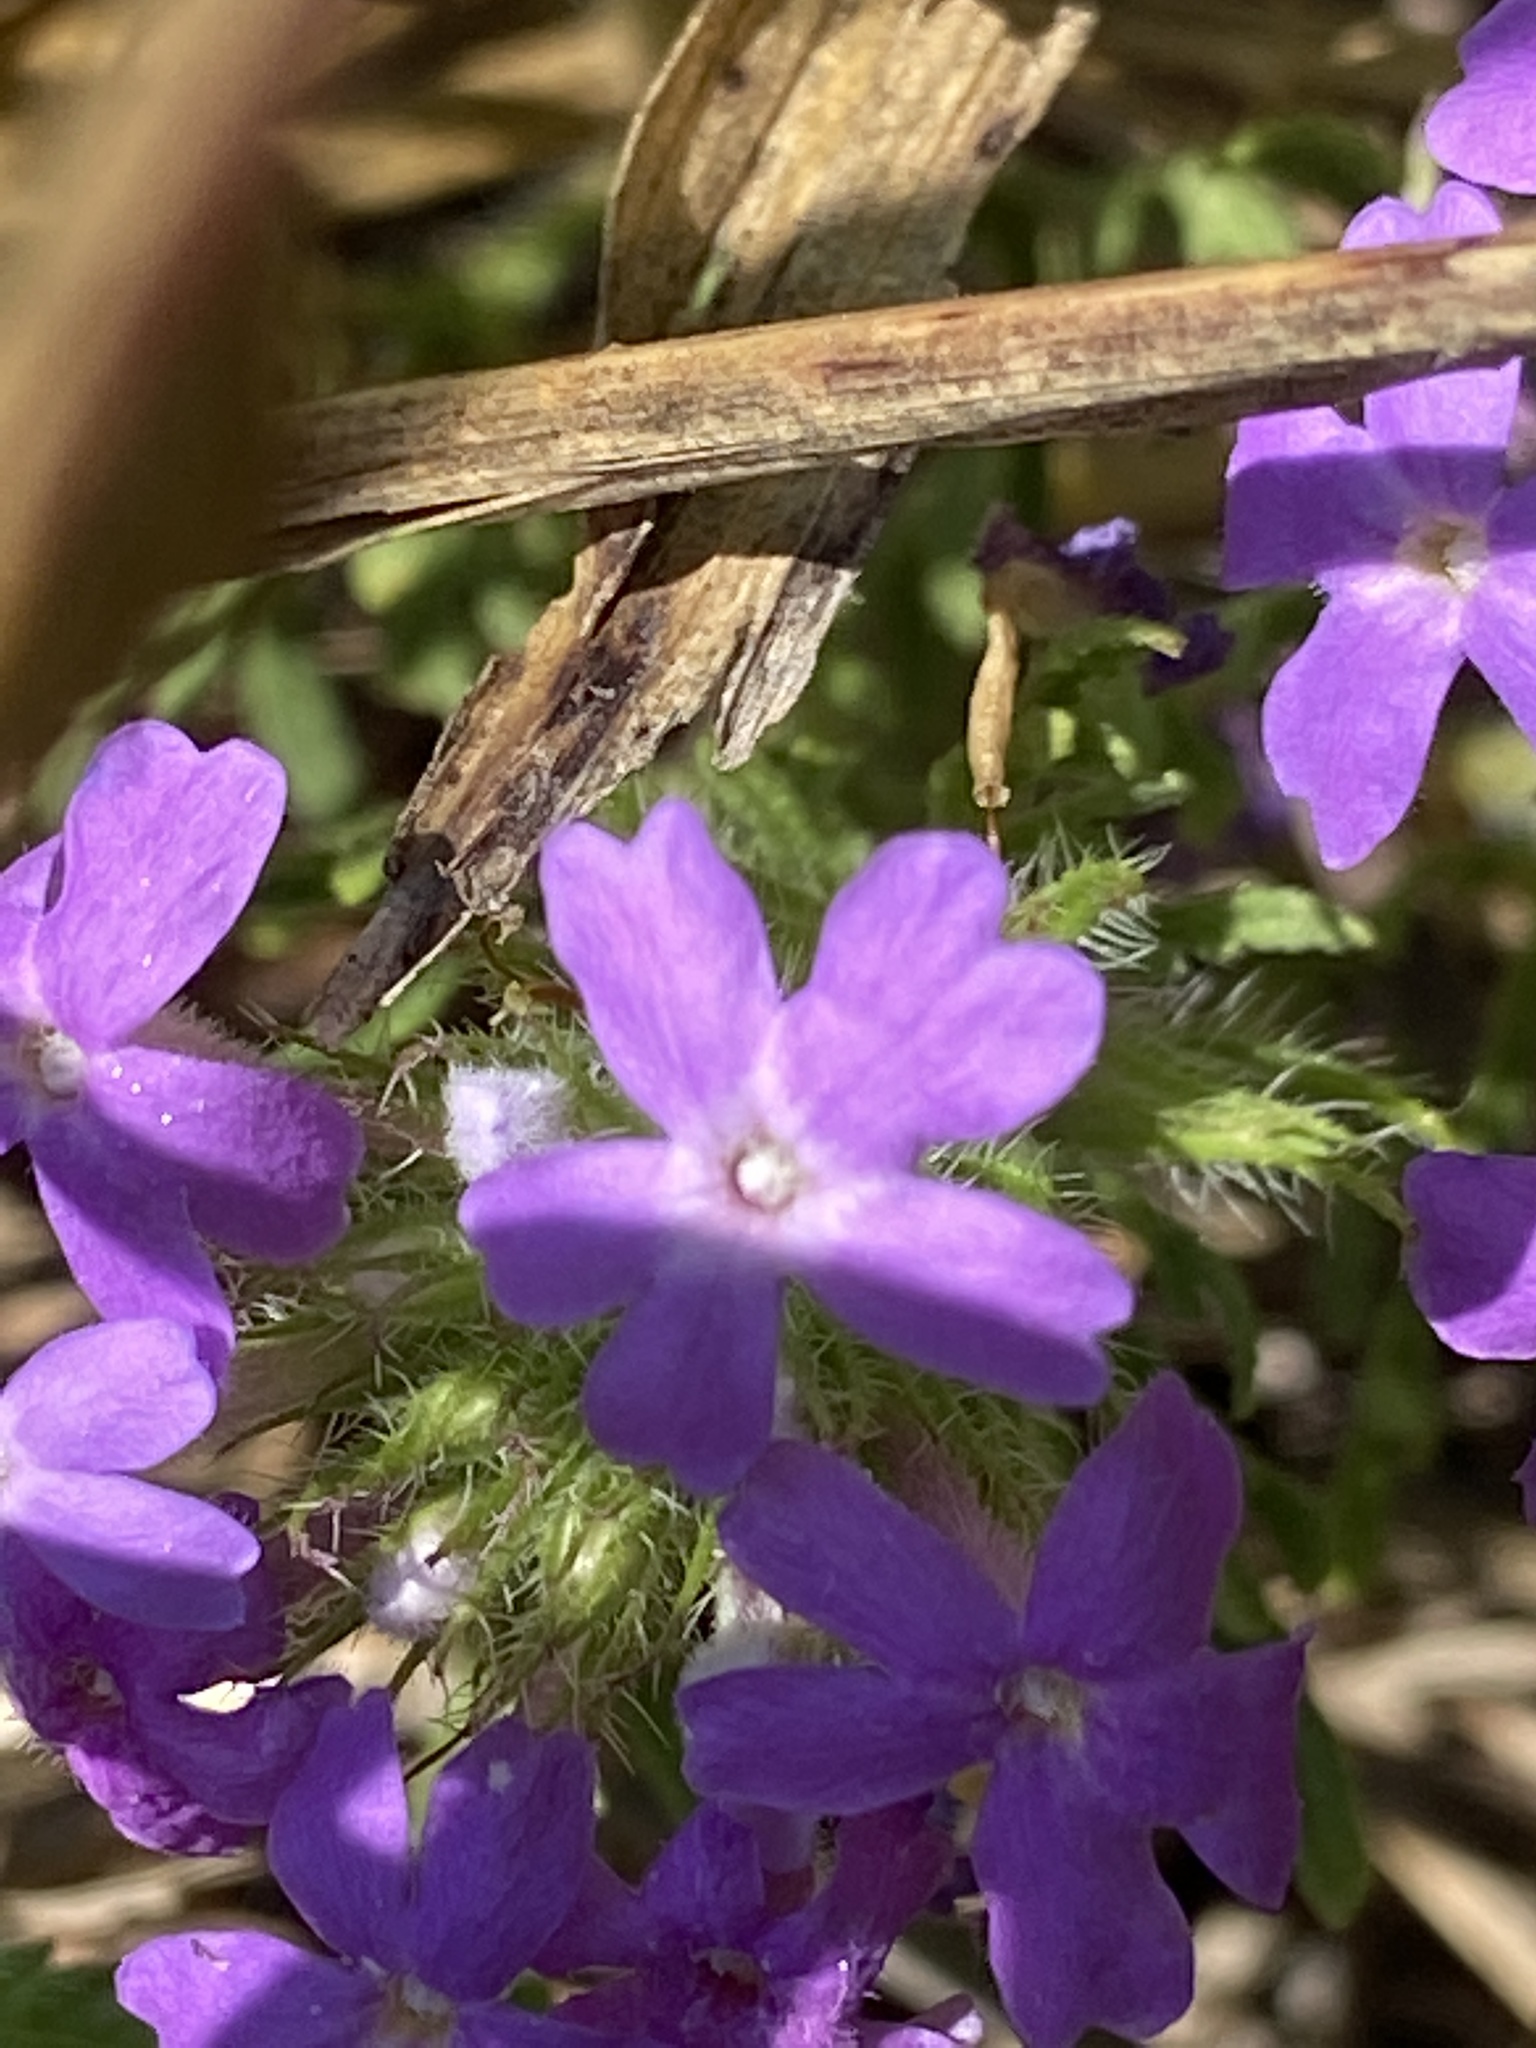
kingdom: Plantae
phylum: Tracheophyta
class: Magnoliopsida
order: Lamiales
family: Verbenaceae
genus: Verbena
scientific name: Verbena bipinnatifida
